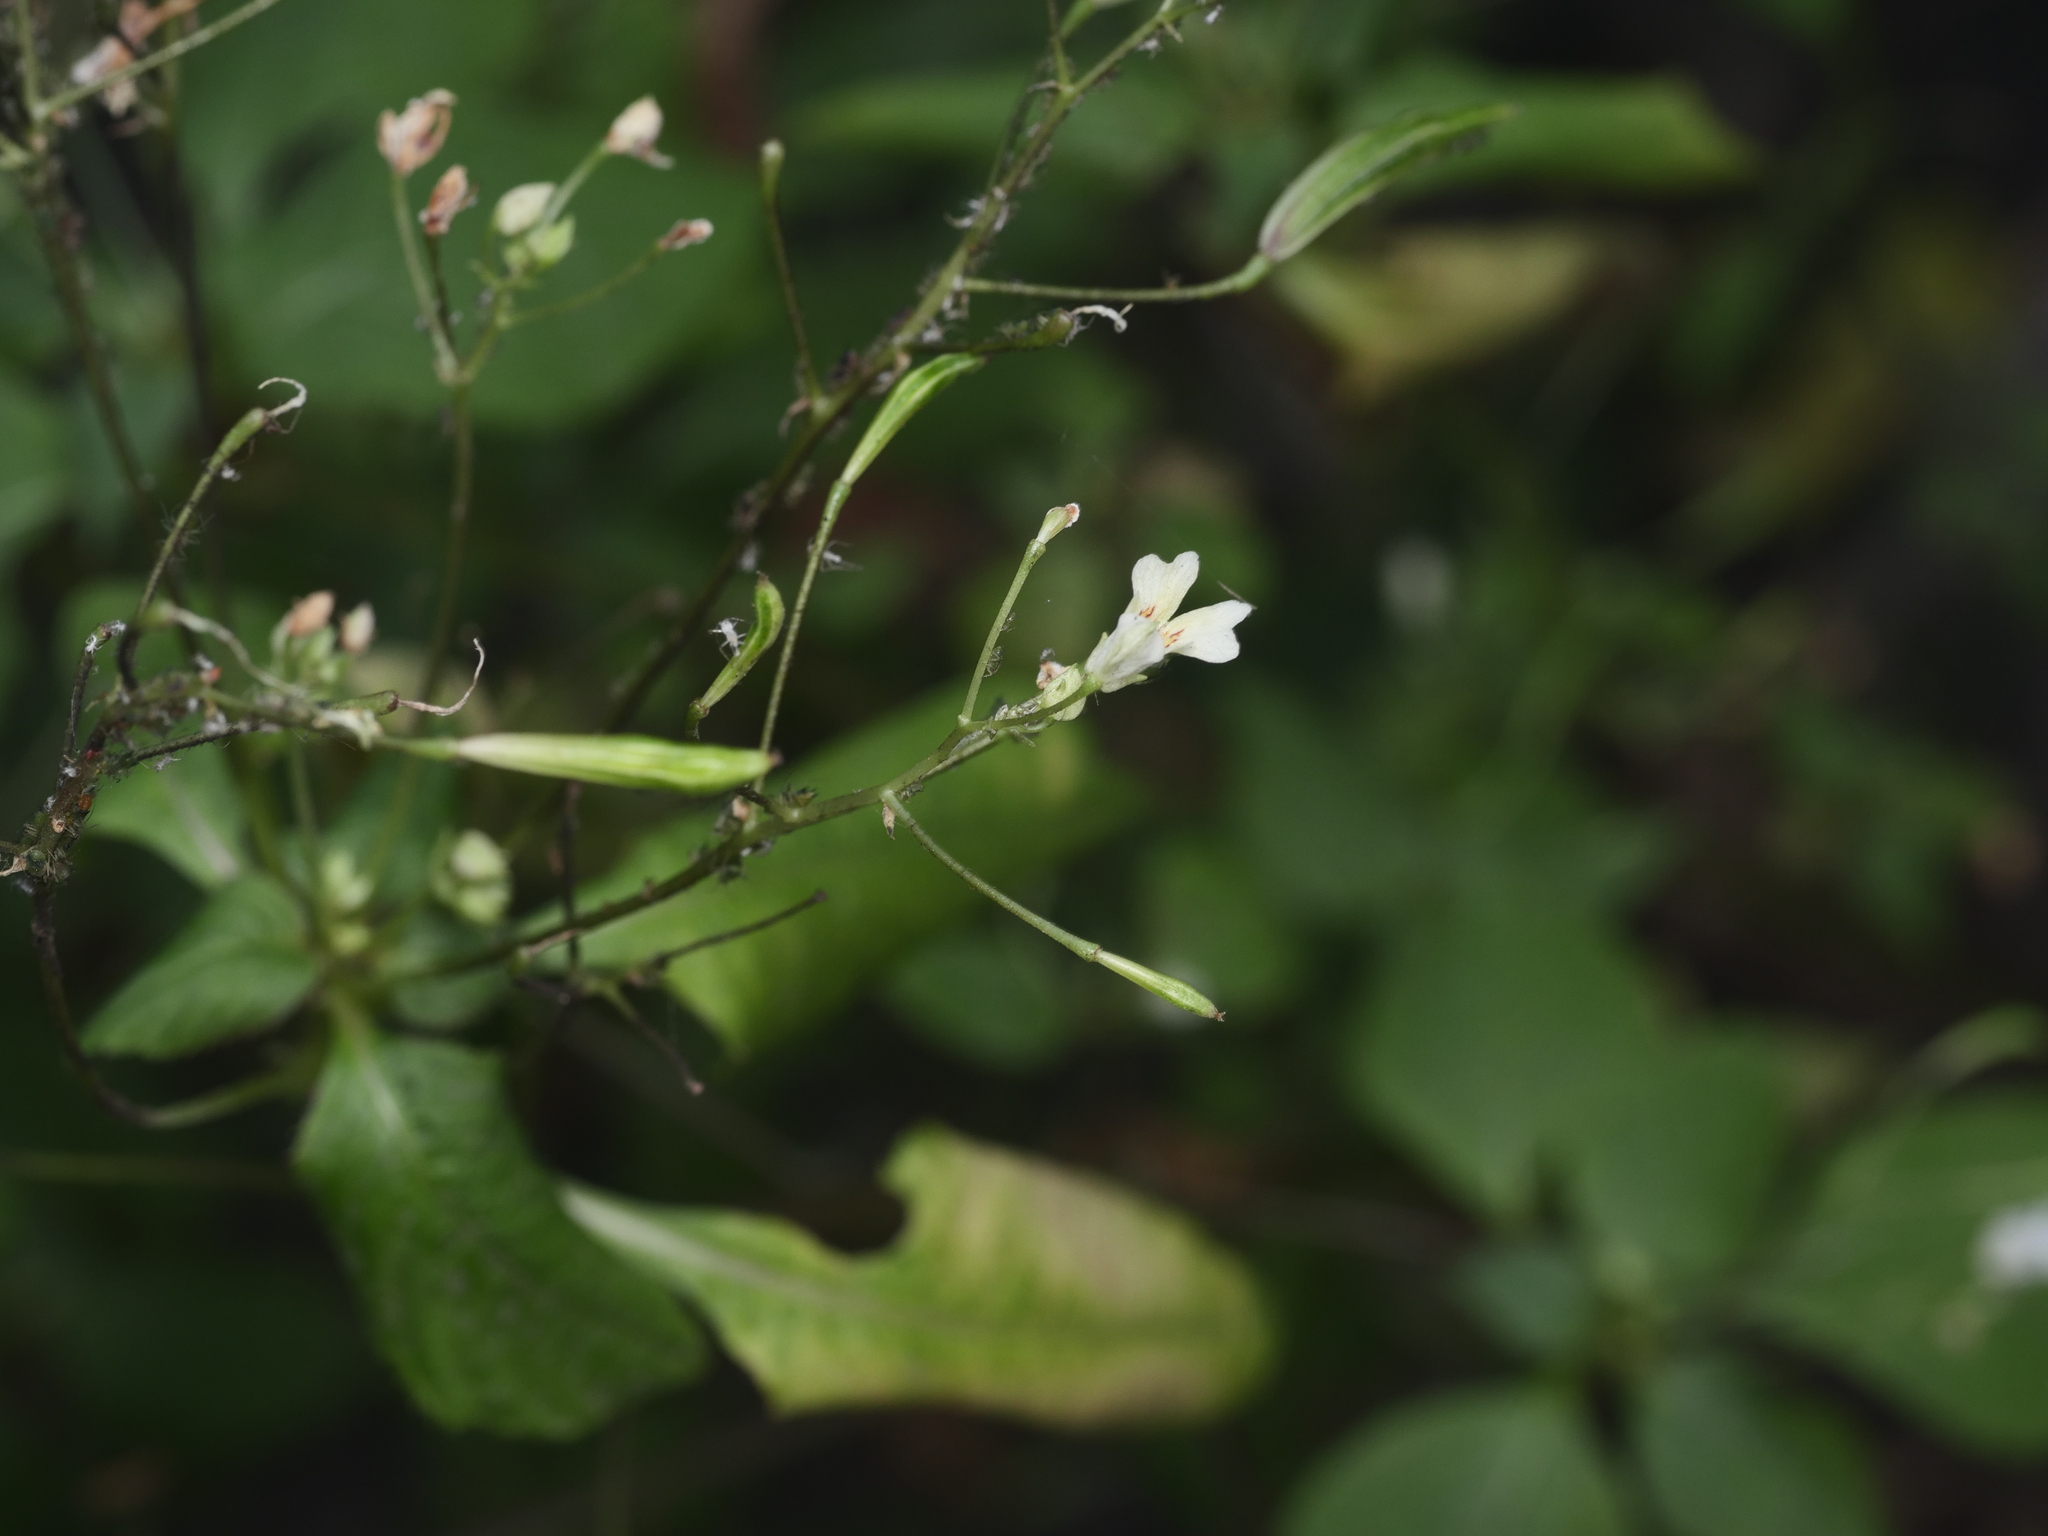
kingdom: Plantae
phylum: Tracheophyta
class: Magnoliopsida
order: Ericales
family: Balsaminaceae
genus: Impatiens
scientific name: Impatiens parviflora
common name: Small balsam
